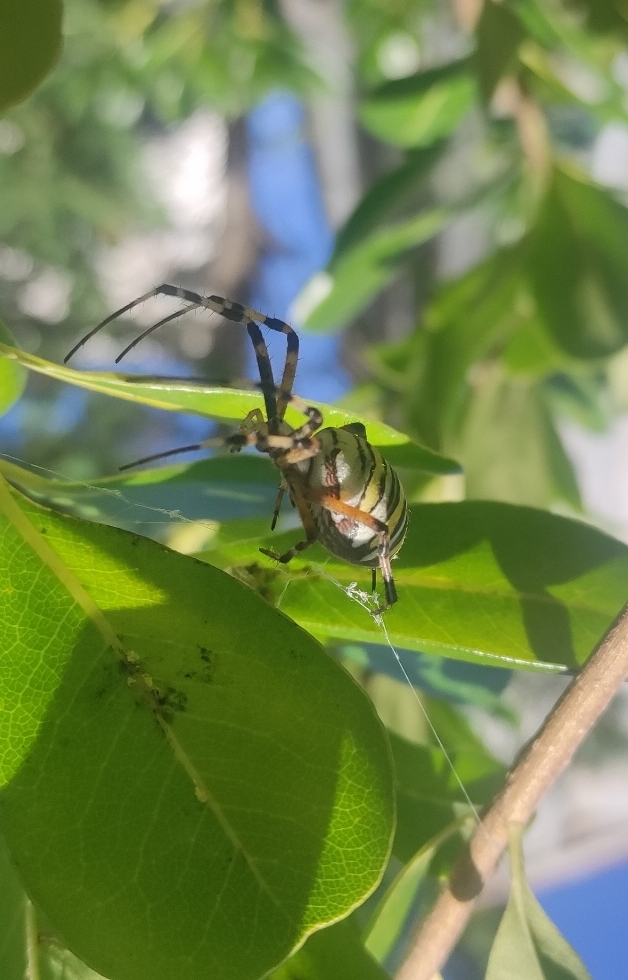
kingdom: Animalia
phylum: Arthropoda
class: Arachnida
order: Araneae
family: Araneidae
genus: Argiope
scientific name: Argiope bruennichi
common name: Wasp spider
